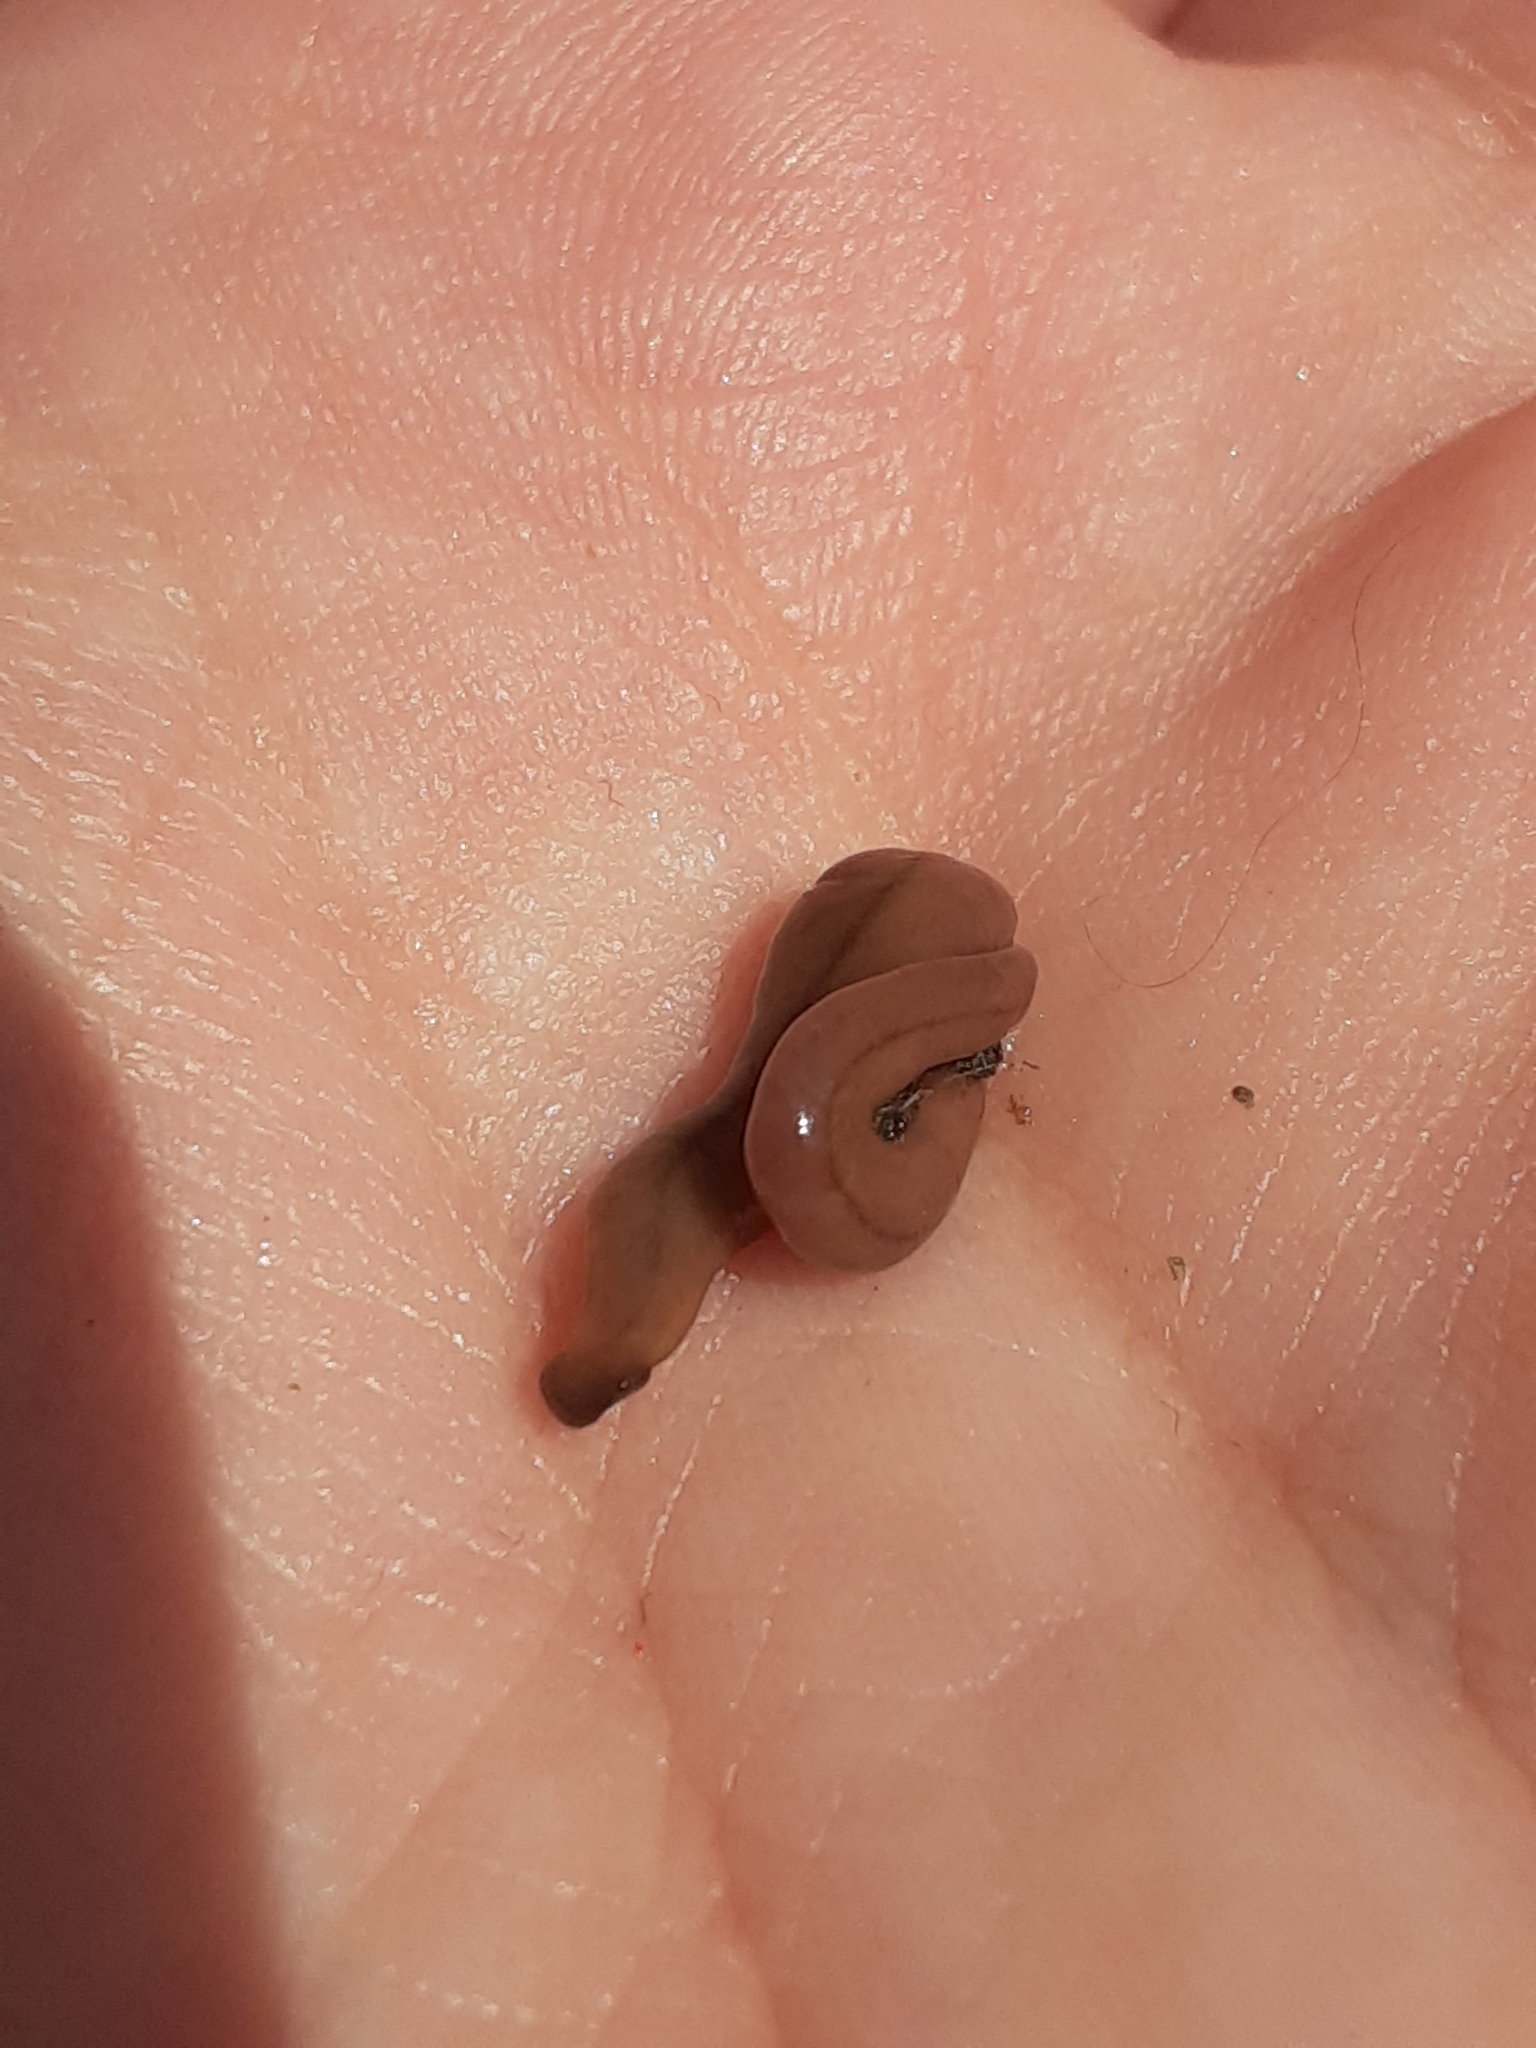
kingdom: Animalia
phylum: Platyhelminthes
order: Tricladida
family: Geoplanidae
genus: Bipalium
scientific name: Bipalium adventitium
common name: Land planarian
